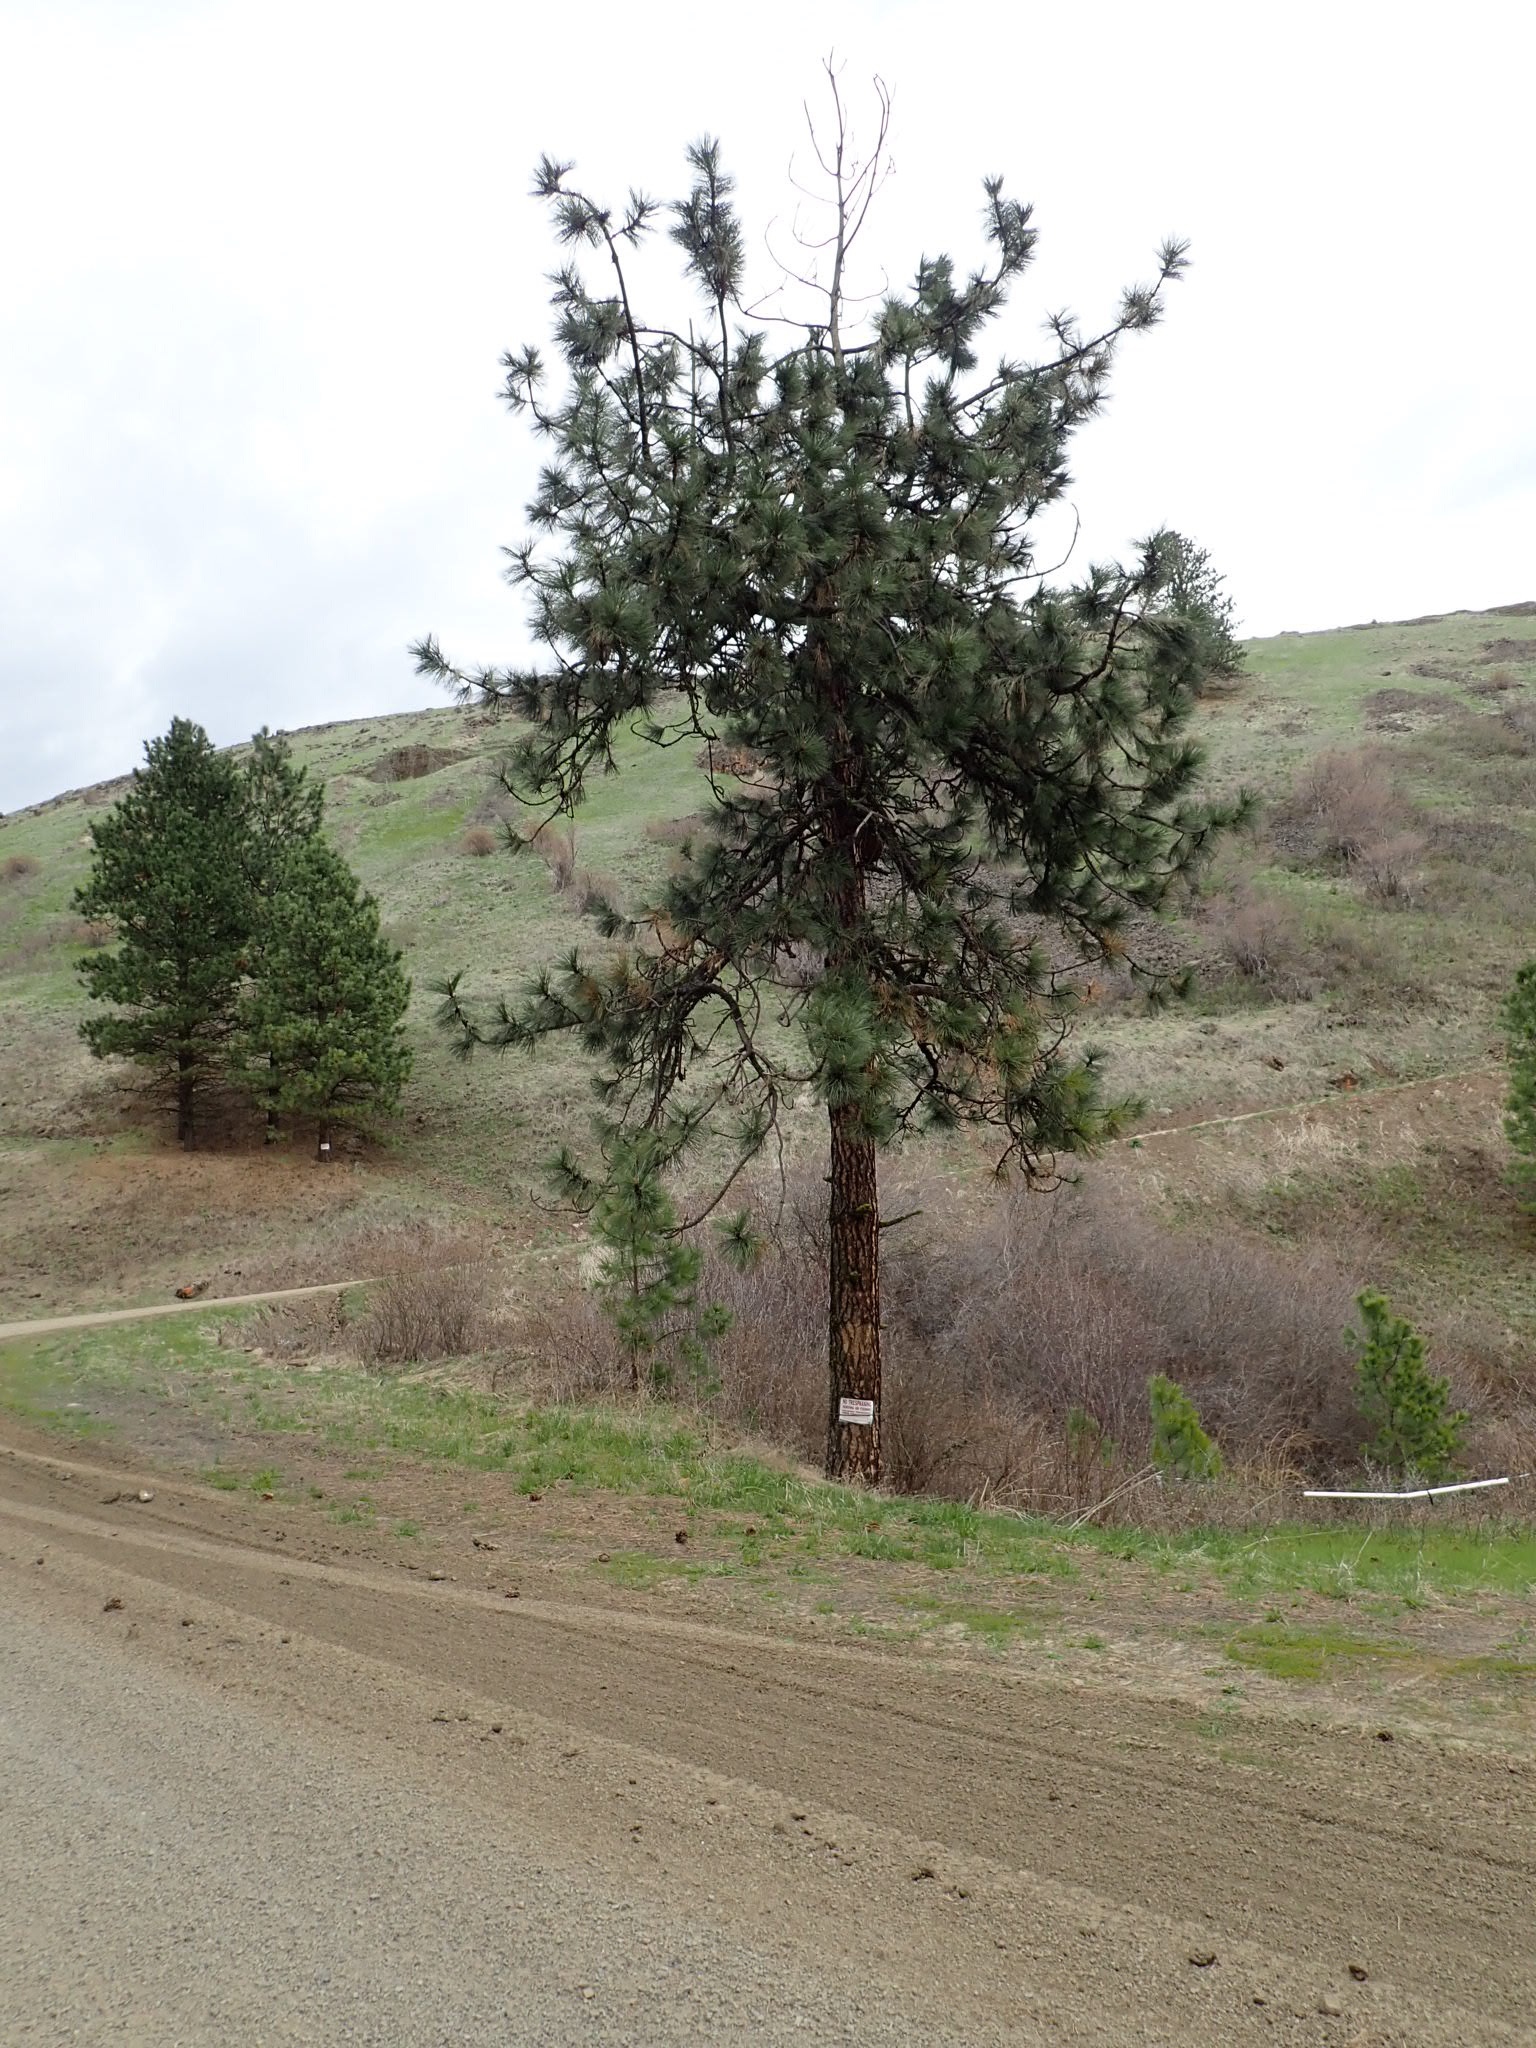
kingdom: Plantae
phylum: Tracheophyta
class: Pinopsida
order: Pinales
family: Pinaceae
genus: Pinus
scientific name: Pinus ponderosa
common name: Western yellow-pine
